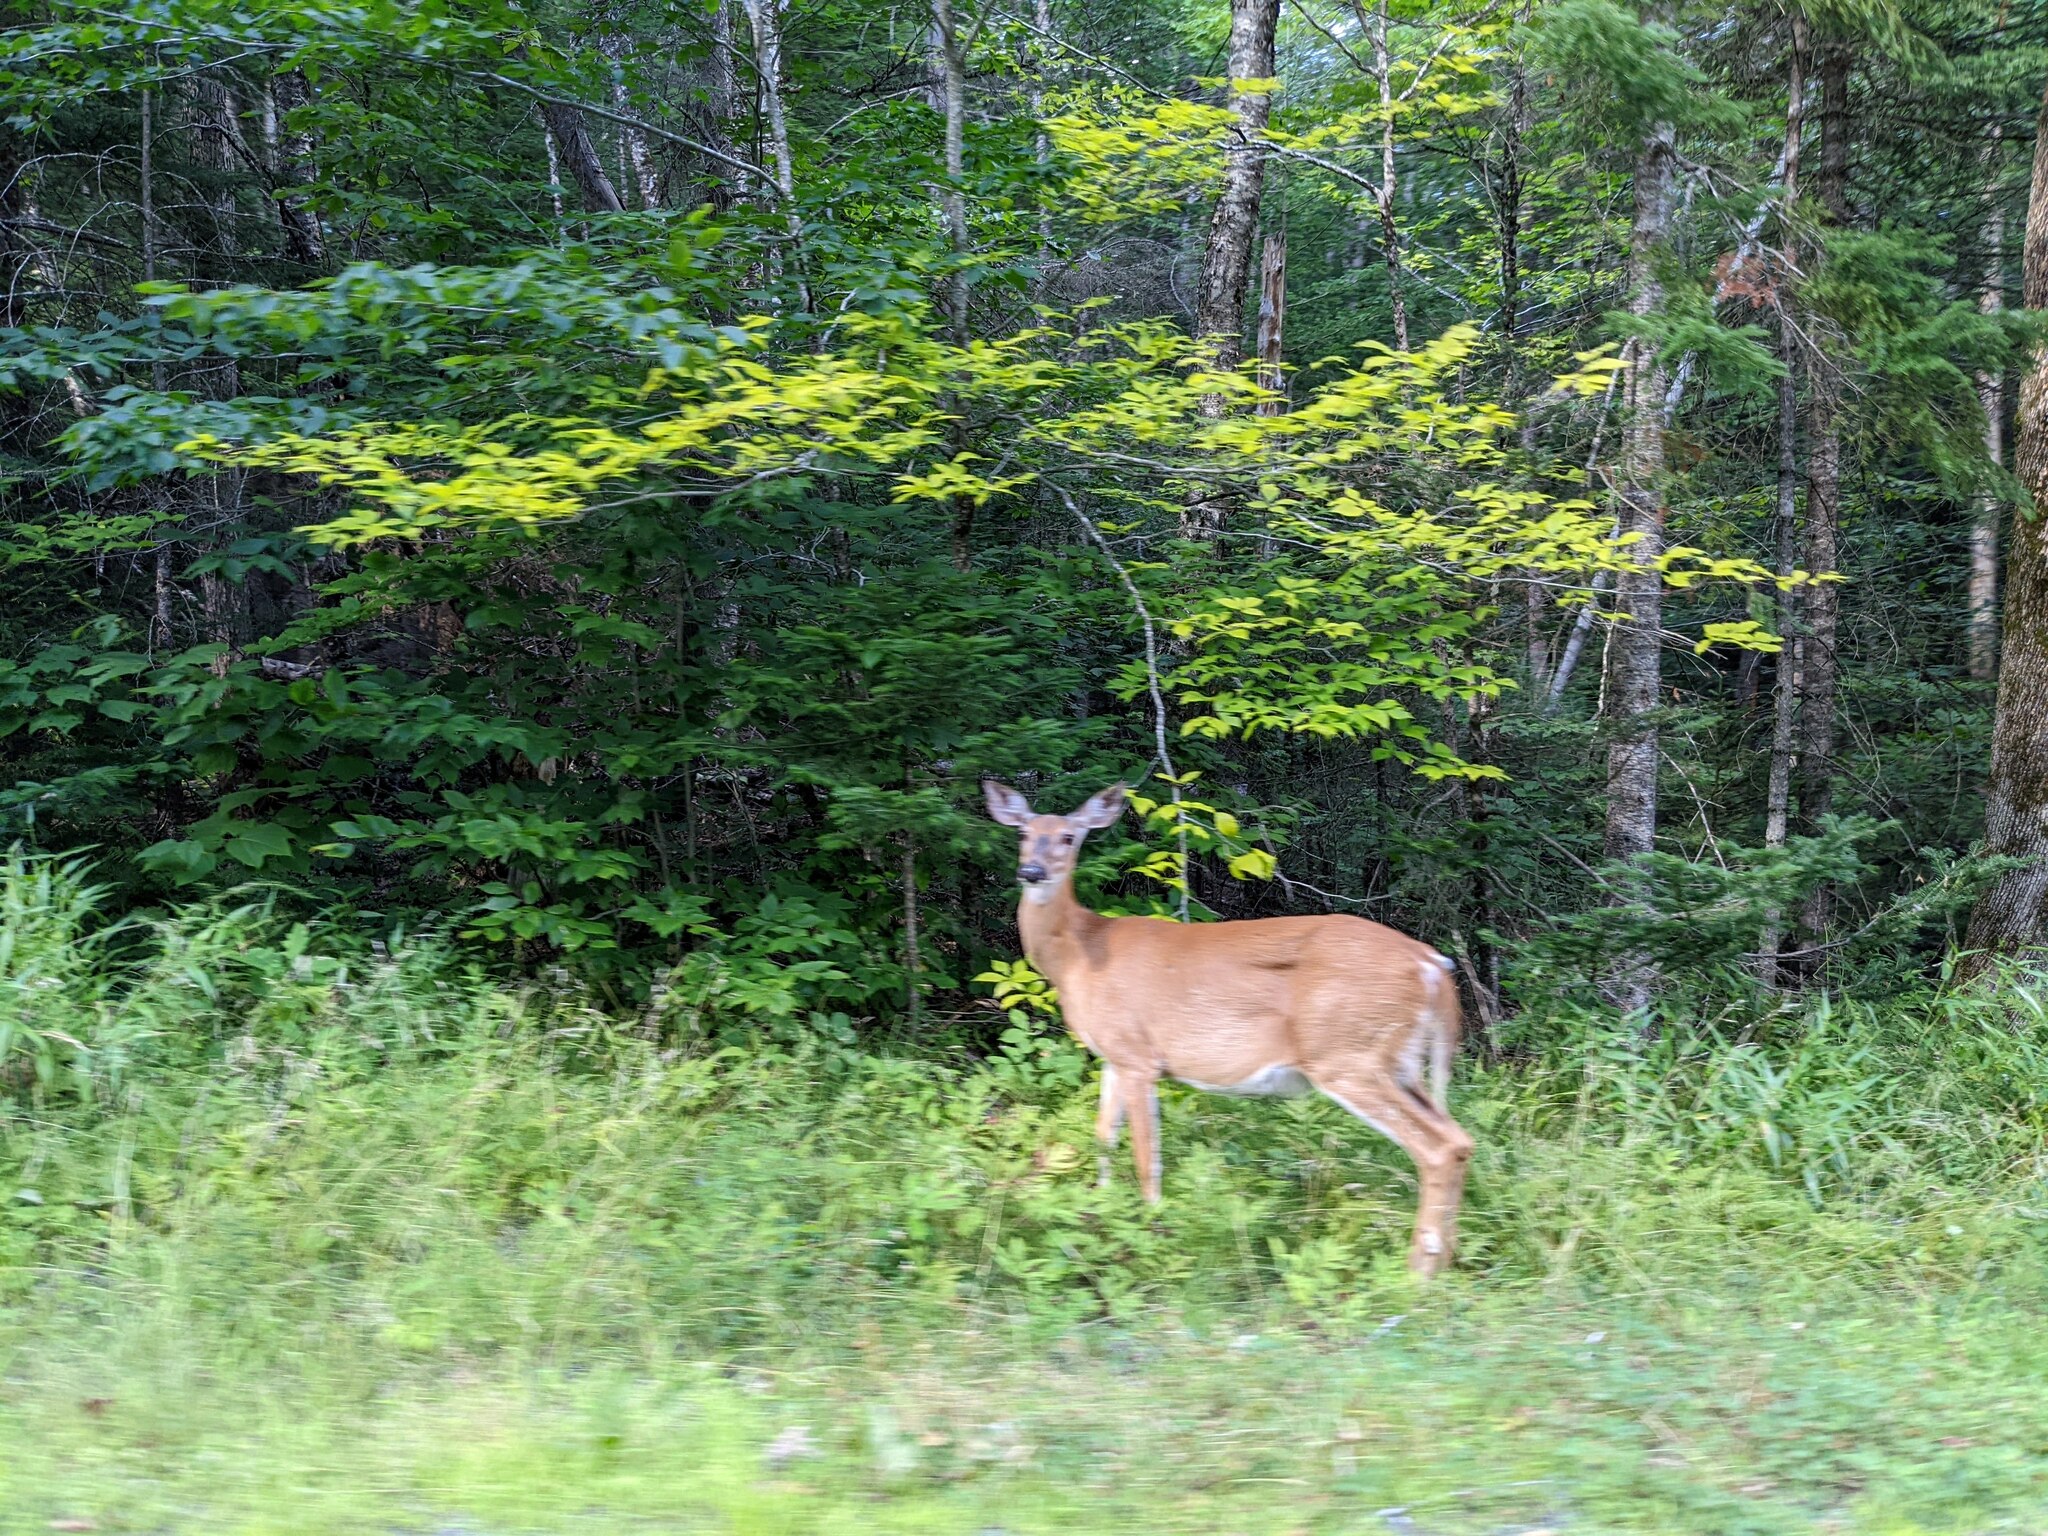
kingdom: Animalia
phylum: Chordata
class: Mammalia
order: Artiodactyla
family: Cervidae
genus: Odocoileus
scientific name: Odocoileus virginianus
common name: White-tailed deer
